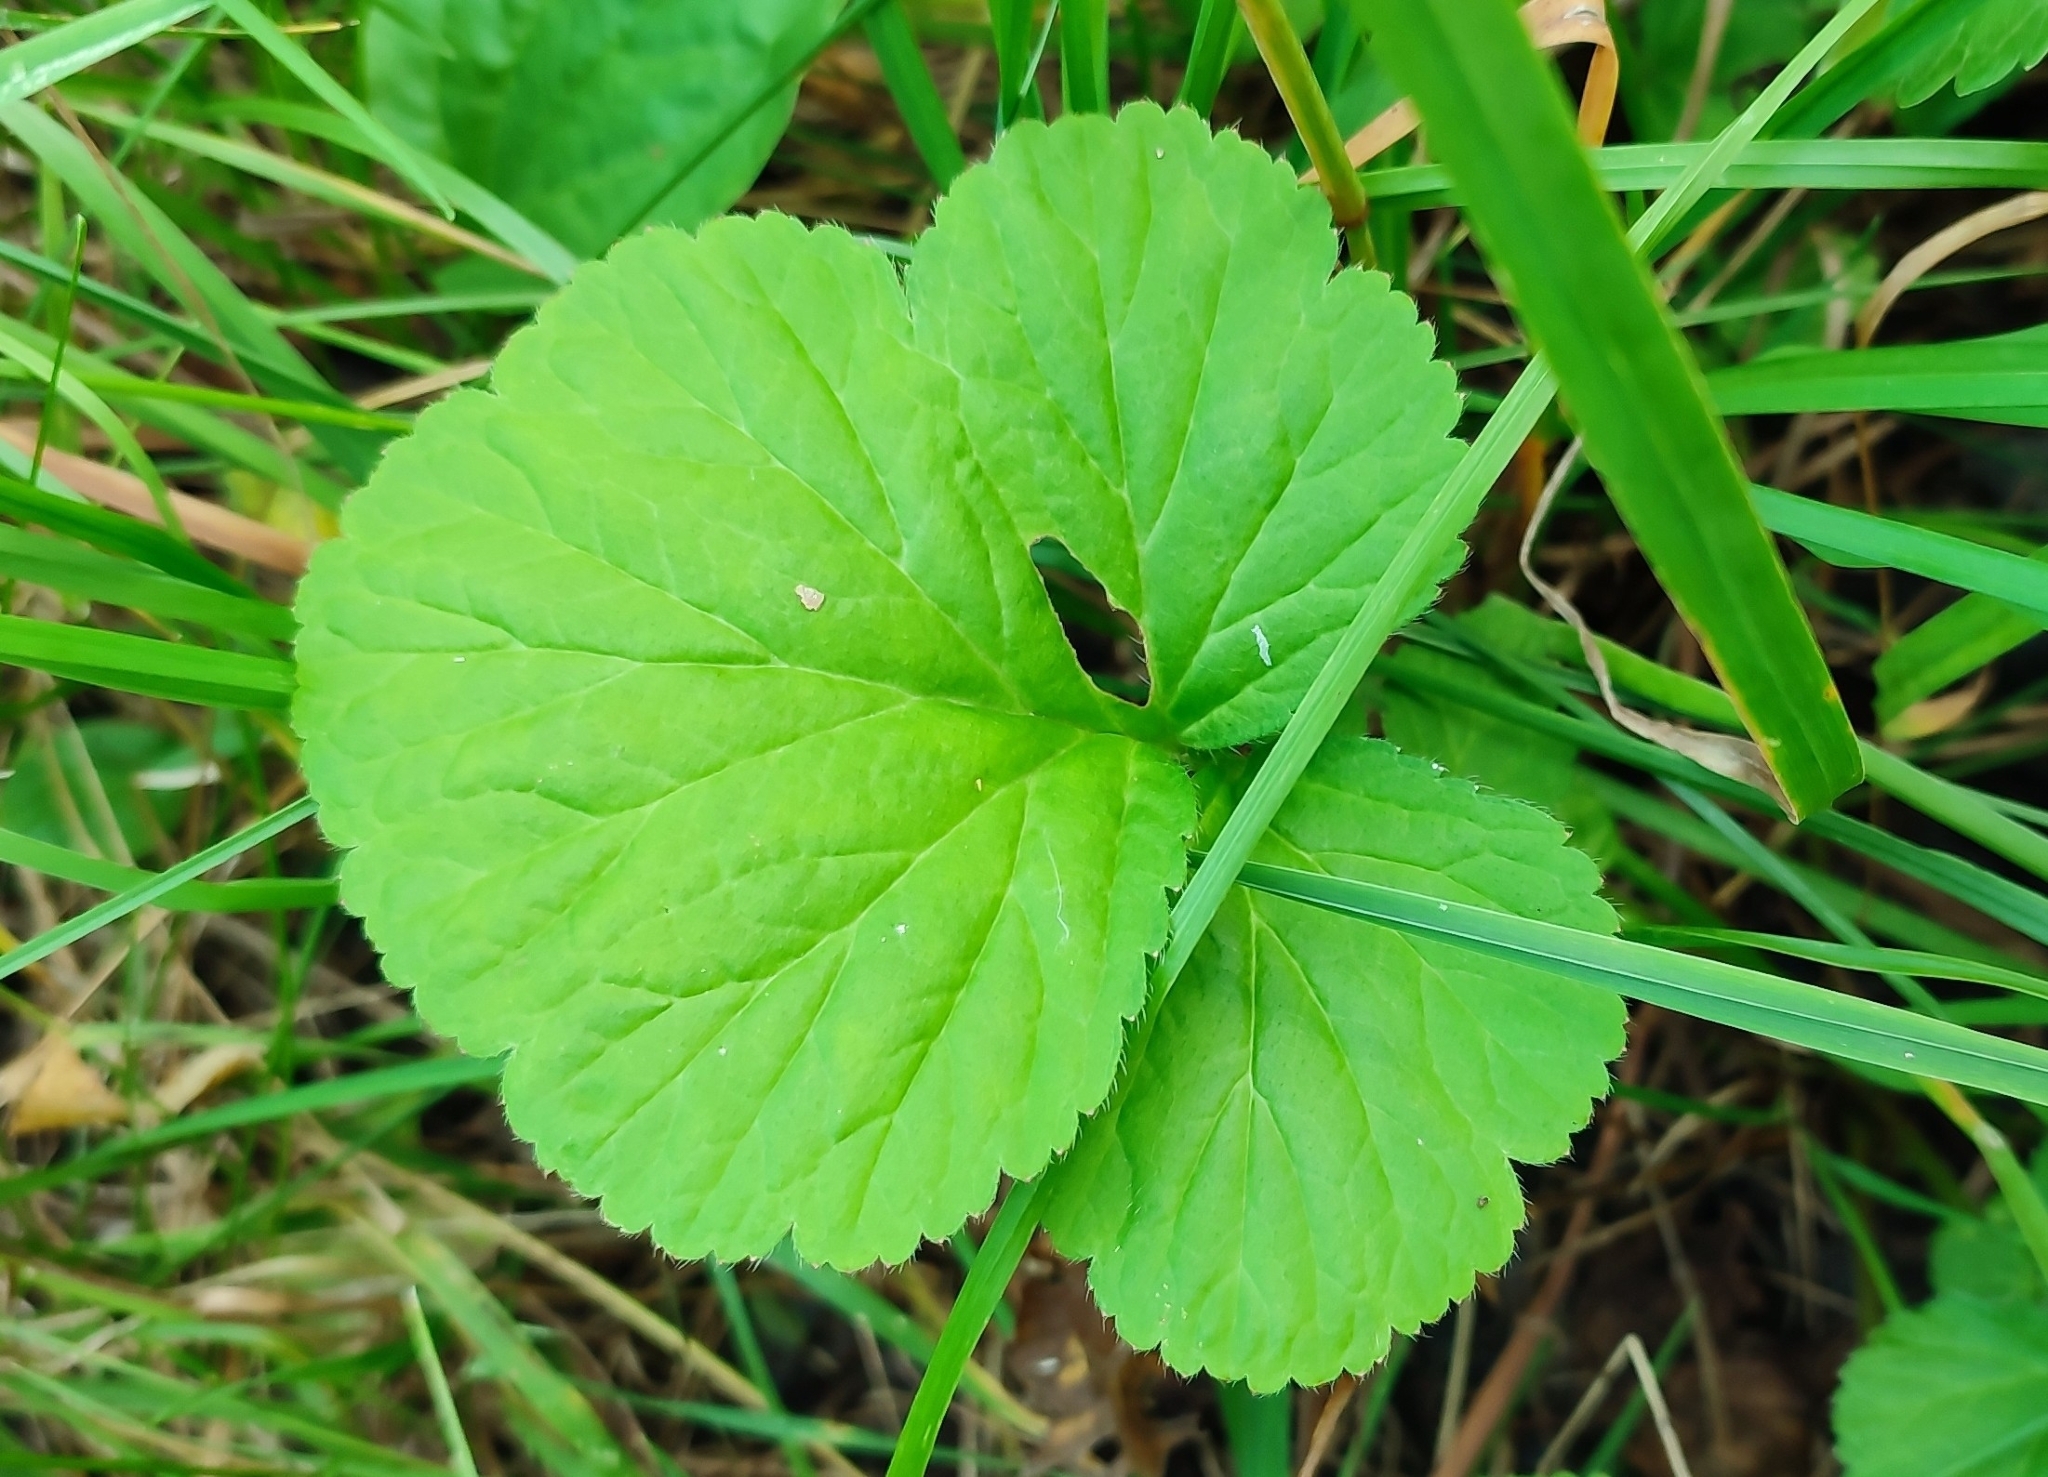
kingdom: Plantae
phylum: Tracheophyta
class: Magnoliopsida
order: Rosales
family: Rosaceae
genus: Geum
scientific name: Geum aleppicum
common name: Yellow avens
